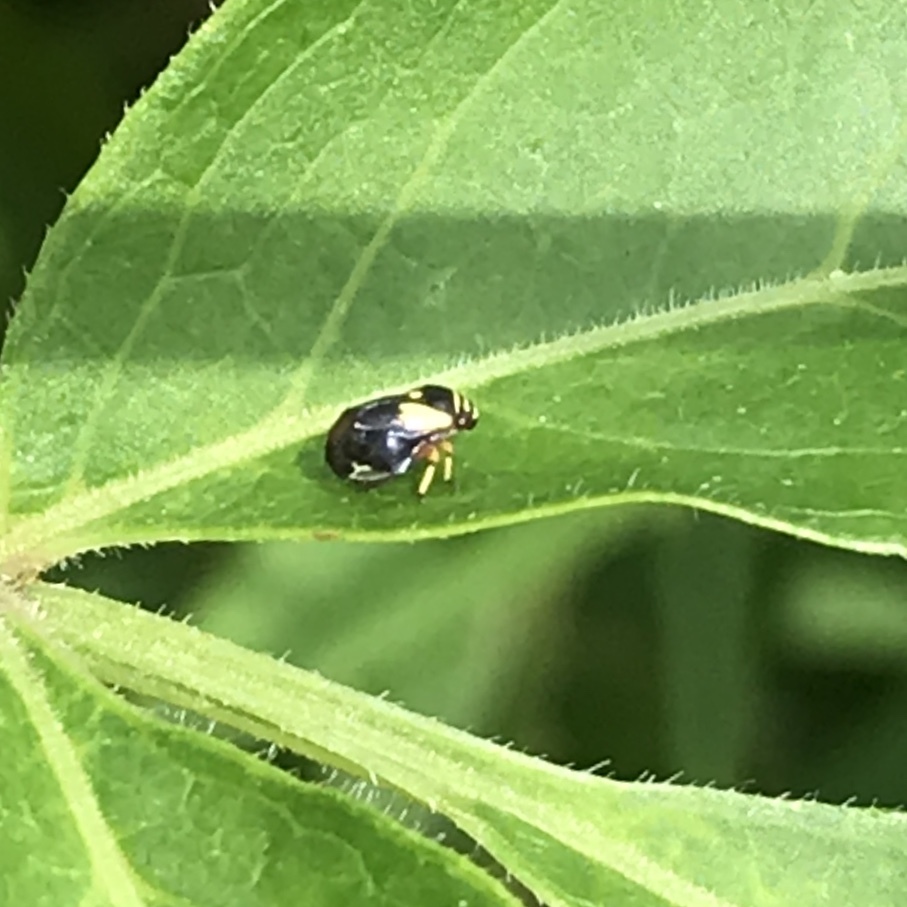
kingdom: Animalia
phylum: Arthropoda
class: Insecta
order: Hemiptera
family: Clastopteridae
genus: Clastoptera
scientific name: Clastoptera proteus
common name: Dogwood spittlebug
